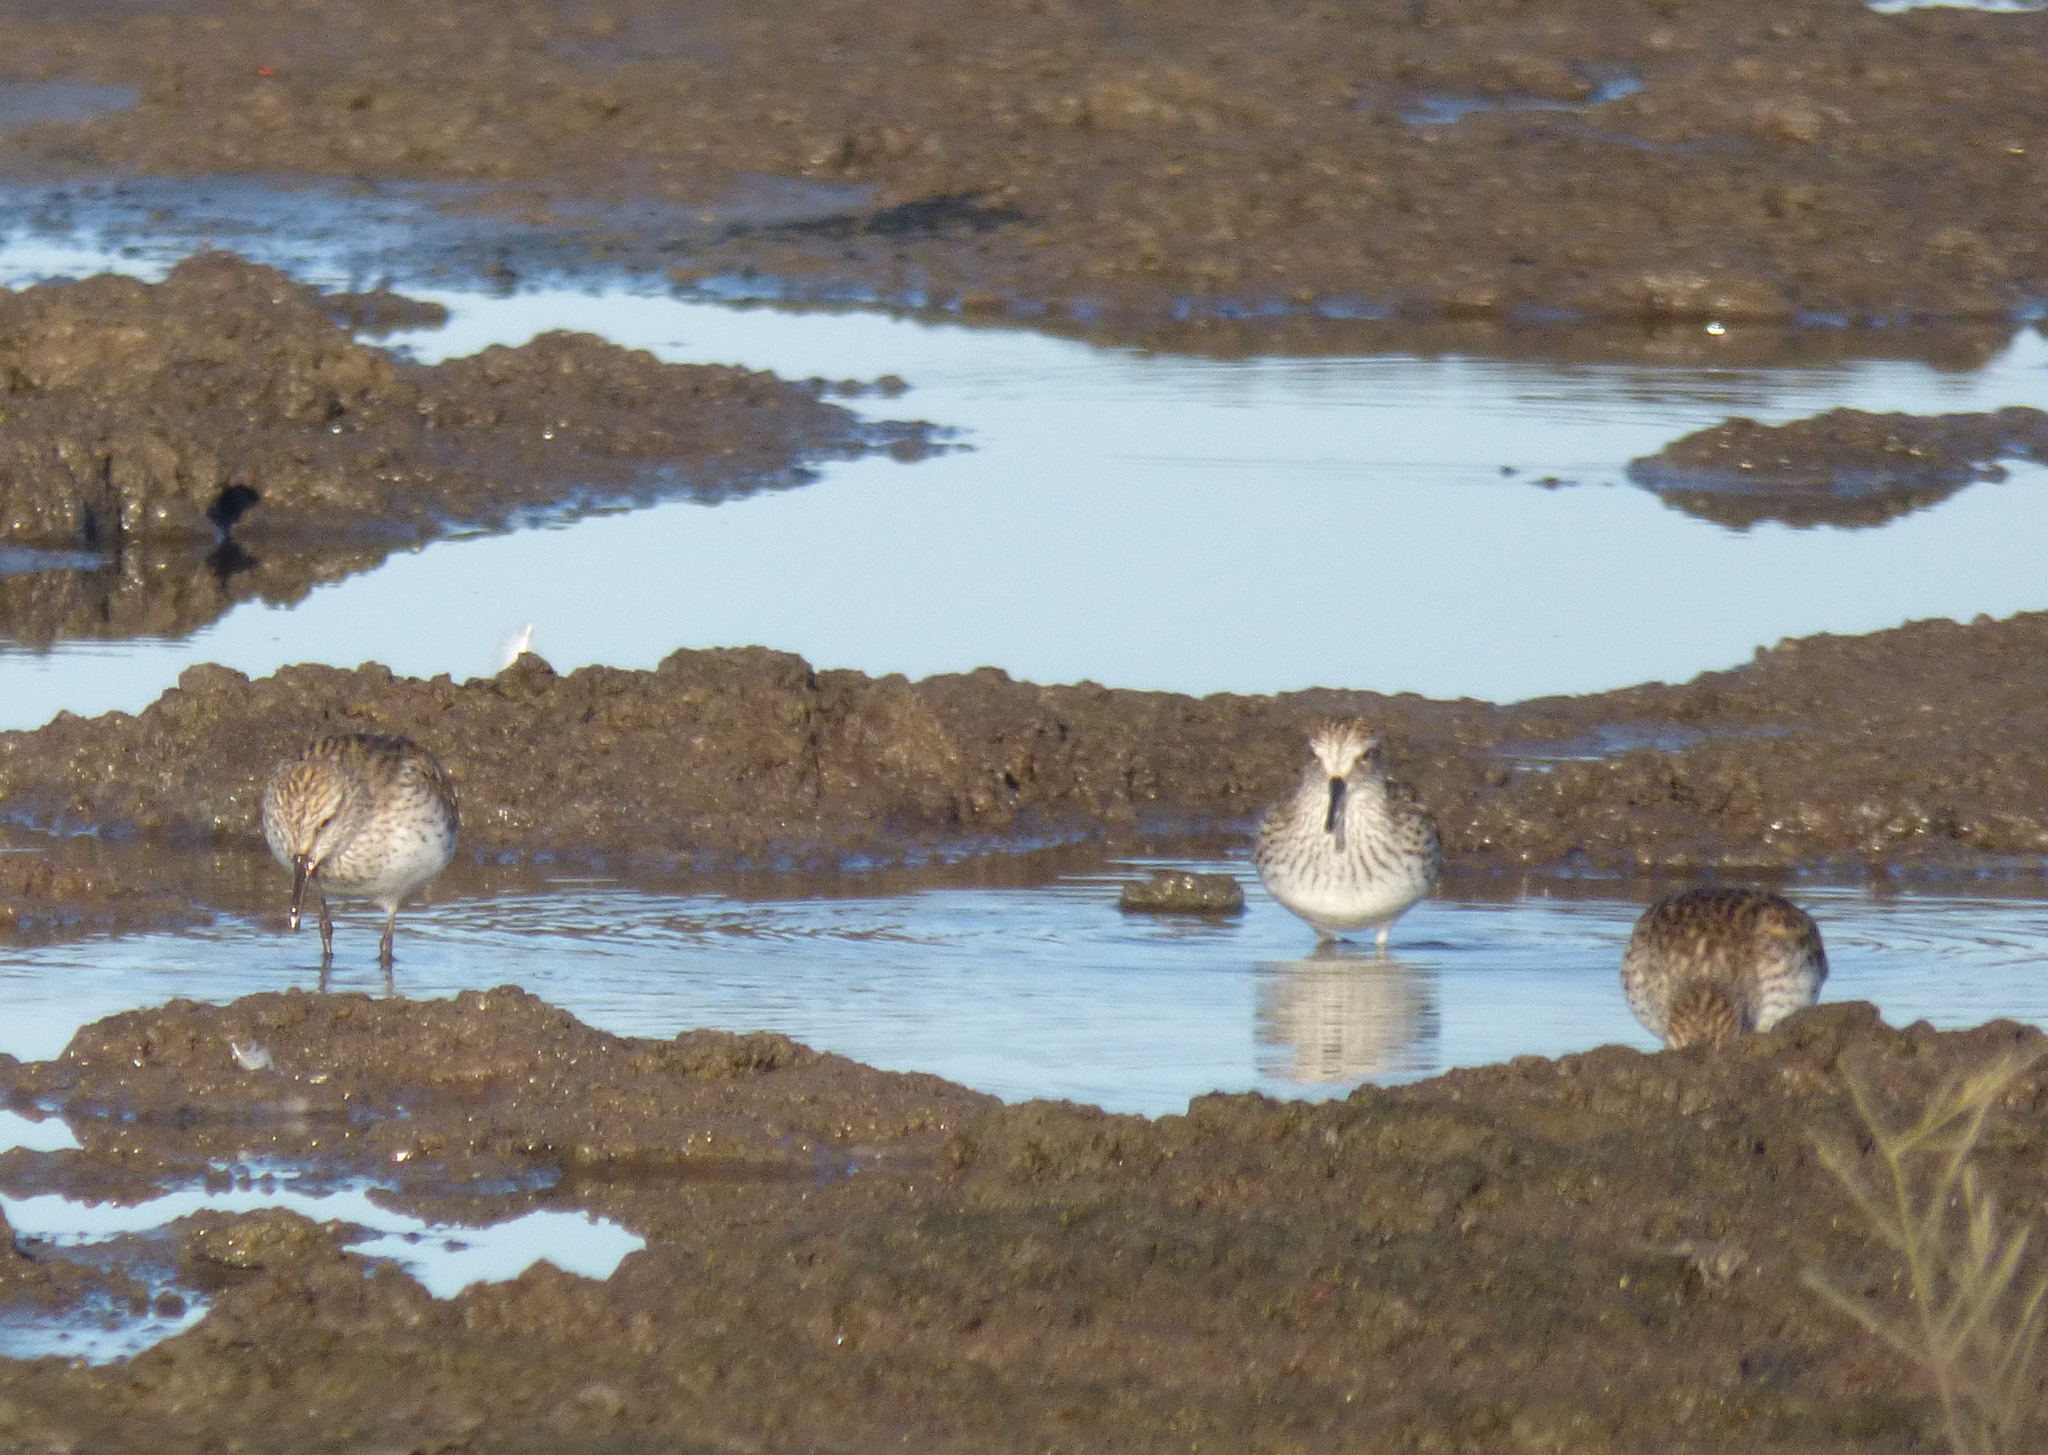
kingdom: Animalia
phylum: Chordata
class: Aves
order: Charadriiformes
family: Scolopacidae
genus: Calidris
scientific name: Calidris fuscicollis
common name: White-rumped sandpiper
